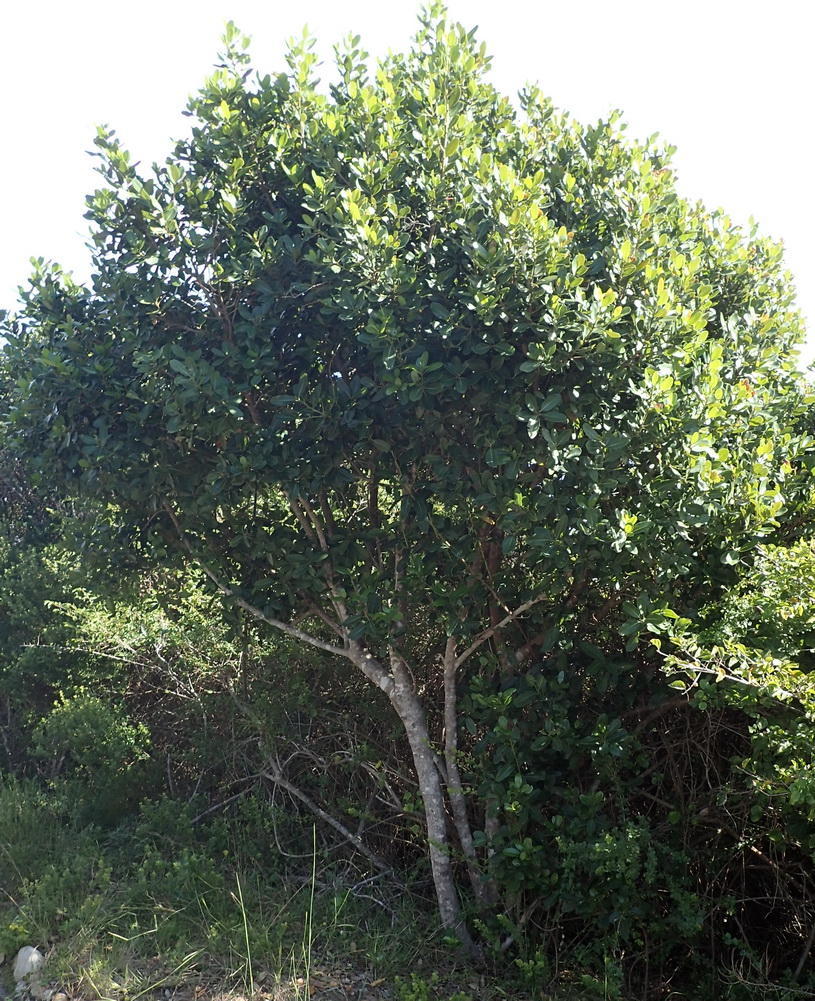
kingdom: Plantae
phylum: Tracheophyta
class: Magnoliopsida
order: Ericales
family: Sapotaceae
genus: Sideroxylon
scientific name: Sideroxylon inerme
